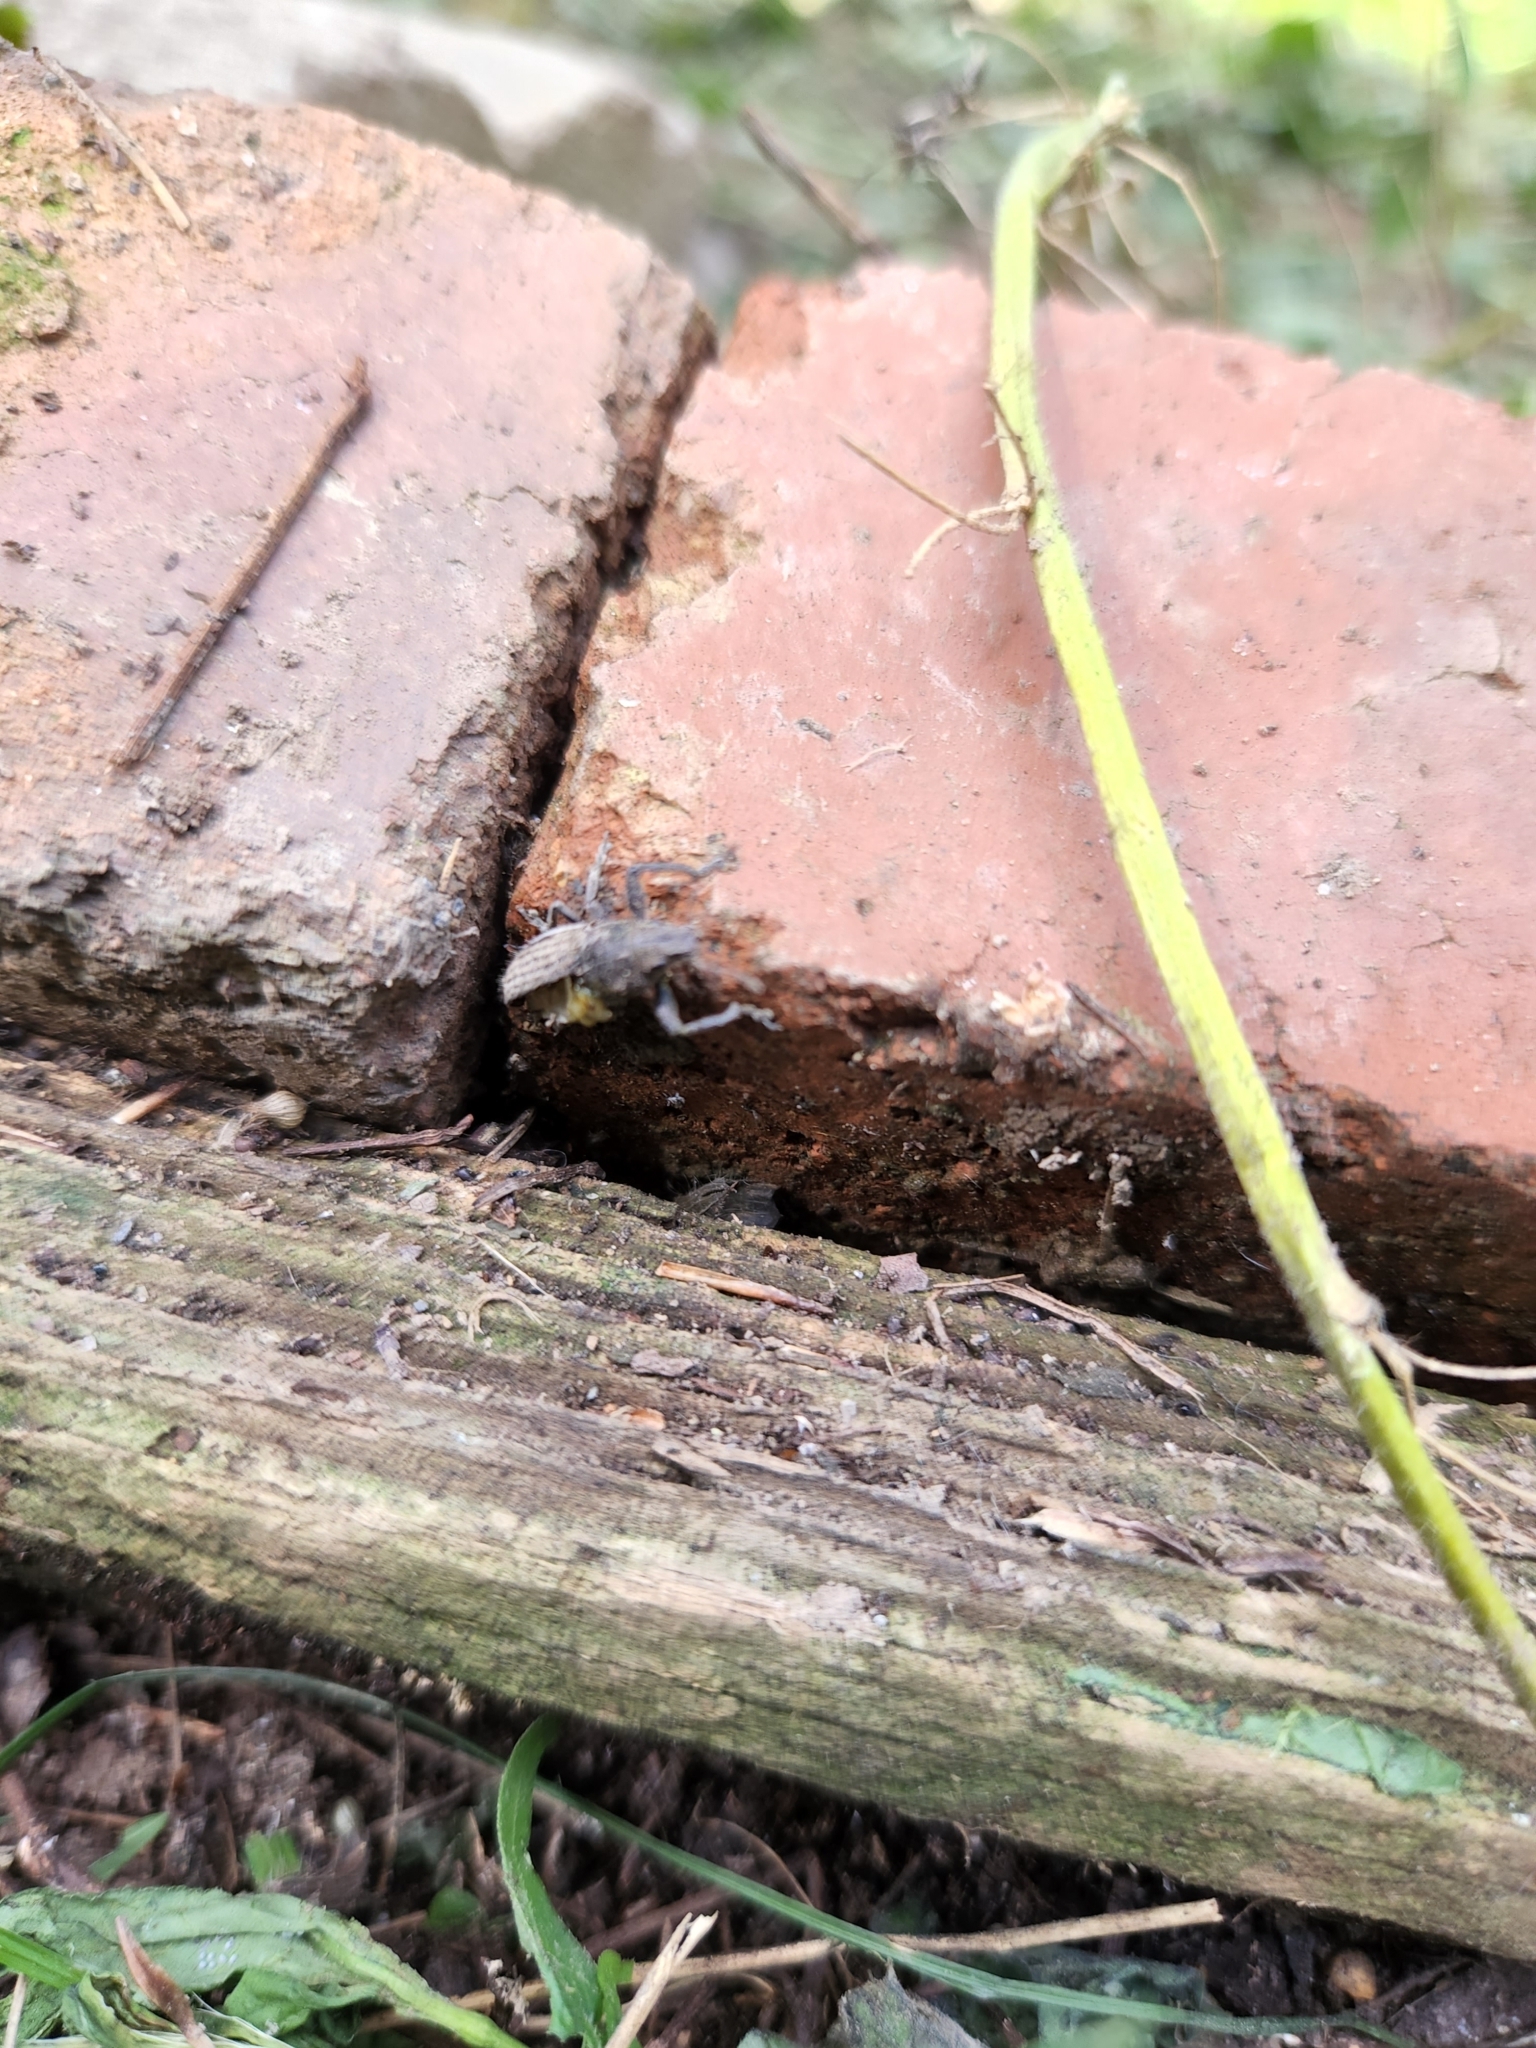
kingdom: Animalia
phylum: Arthropoda
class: Insecta
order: Coleoptera
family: Curculionidae
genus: Naupactus
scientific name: Naupactus leucoloma
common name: Whitefringed beetle
